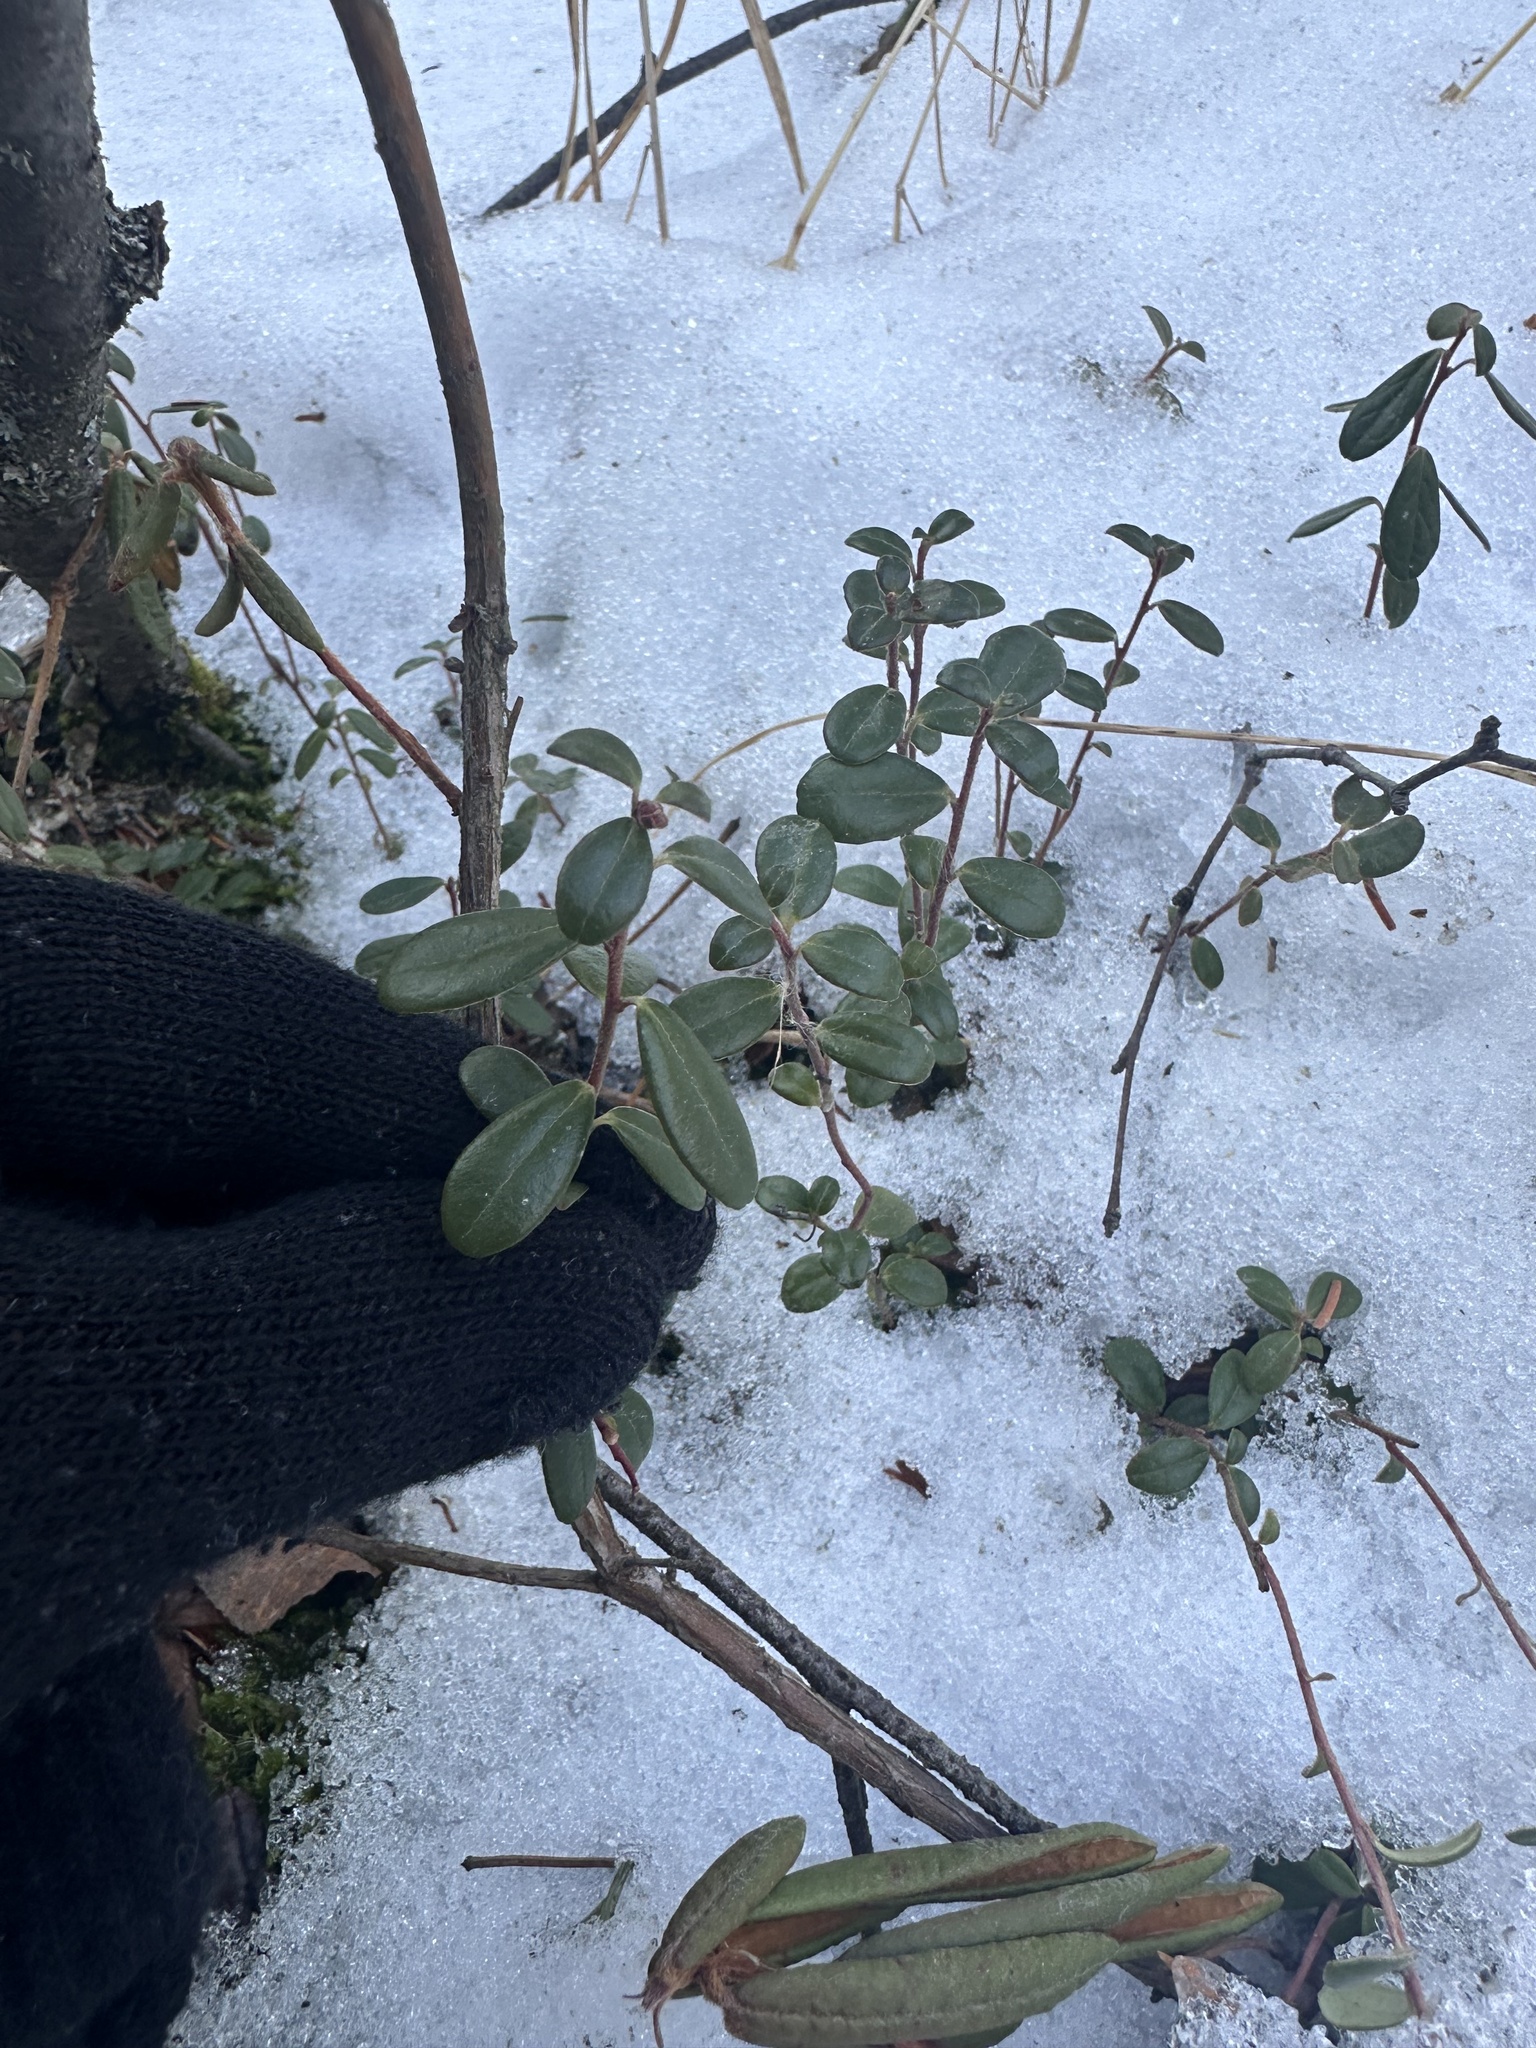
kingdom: Plantae
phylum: Tracheophyta
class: Magnoliopsida
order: Ericales
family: Ericaceae
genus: Vaccinium
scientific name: Vaccinium vitis-idaea
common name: Cowberry
